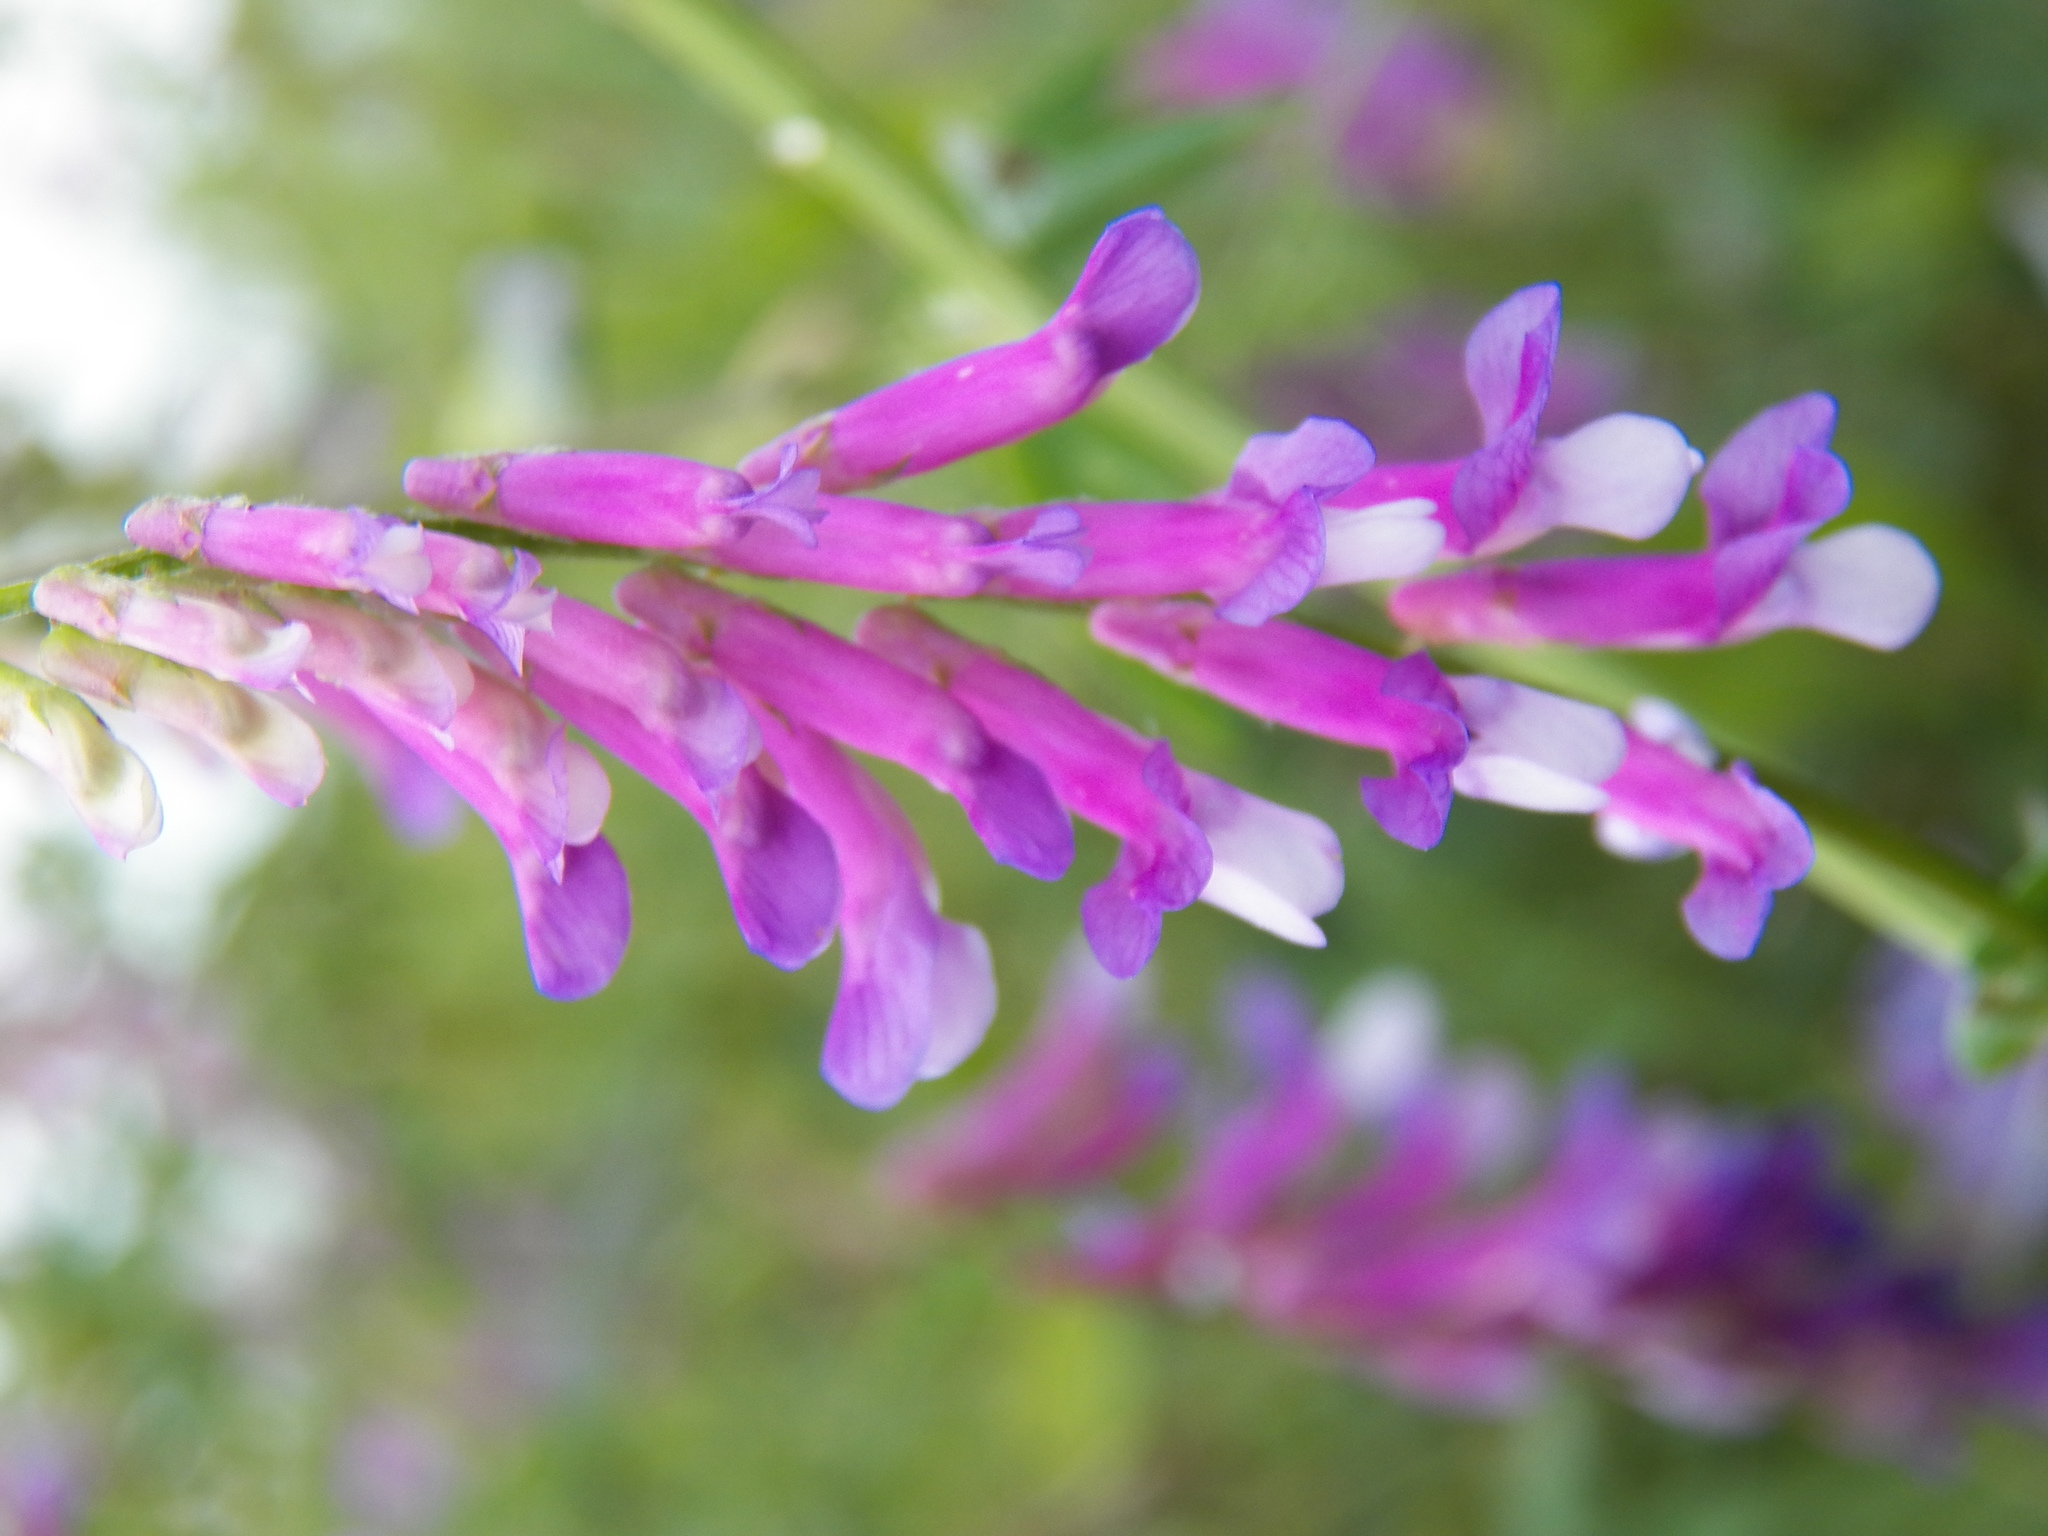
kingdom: Plantae
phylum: Tracheophyta
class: Magnoliopsida
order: Fabales
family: Fabaceae
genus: Vicia
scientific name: Vicia villosa
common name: Fodder vetch
